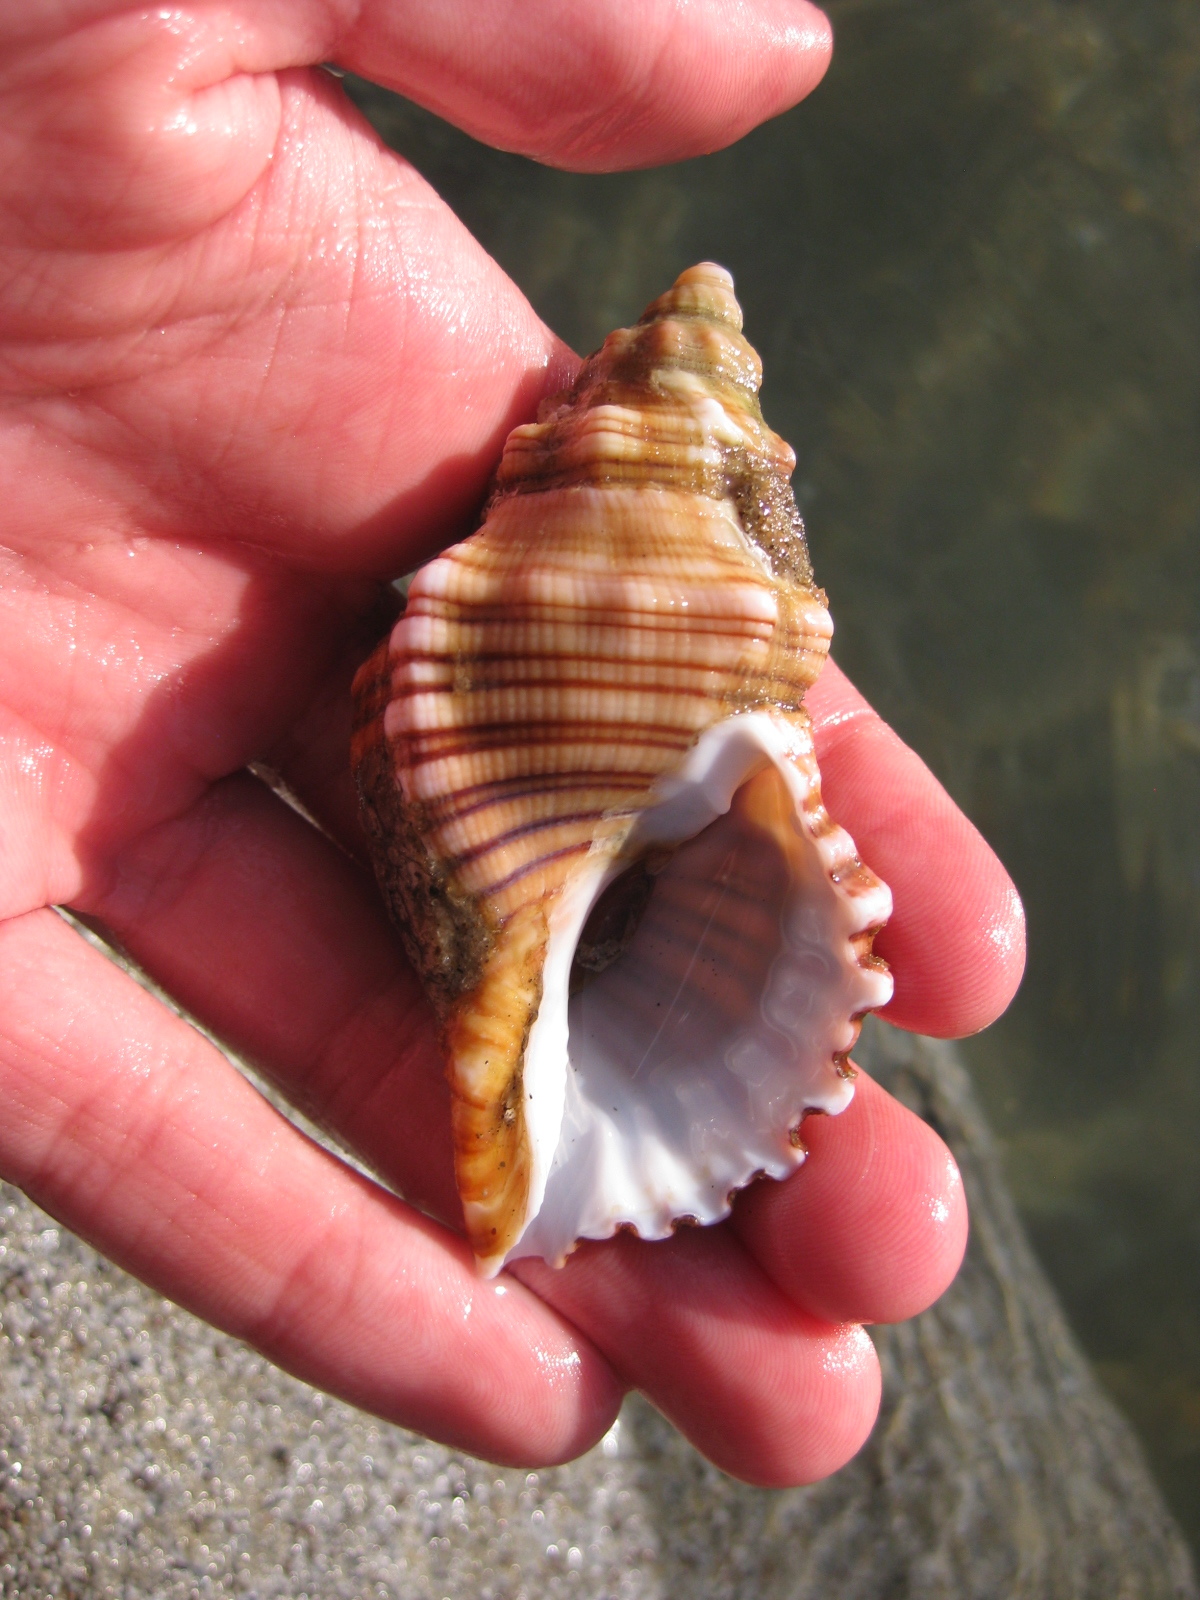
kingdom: Animalia
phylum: Mollusca
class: Gastropoda
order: Littorinimorpha
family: Cymatiidae
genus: Cabestana
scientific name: Cabestana spengleri
